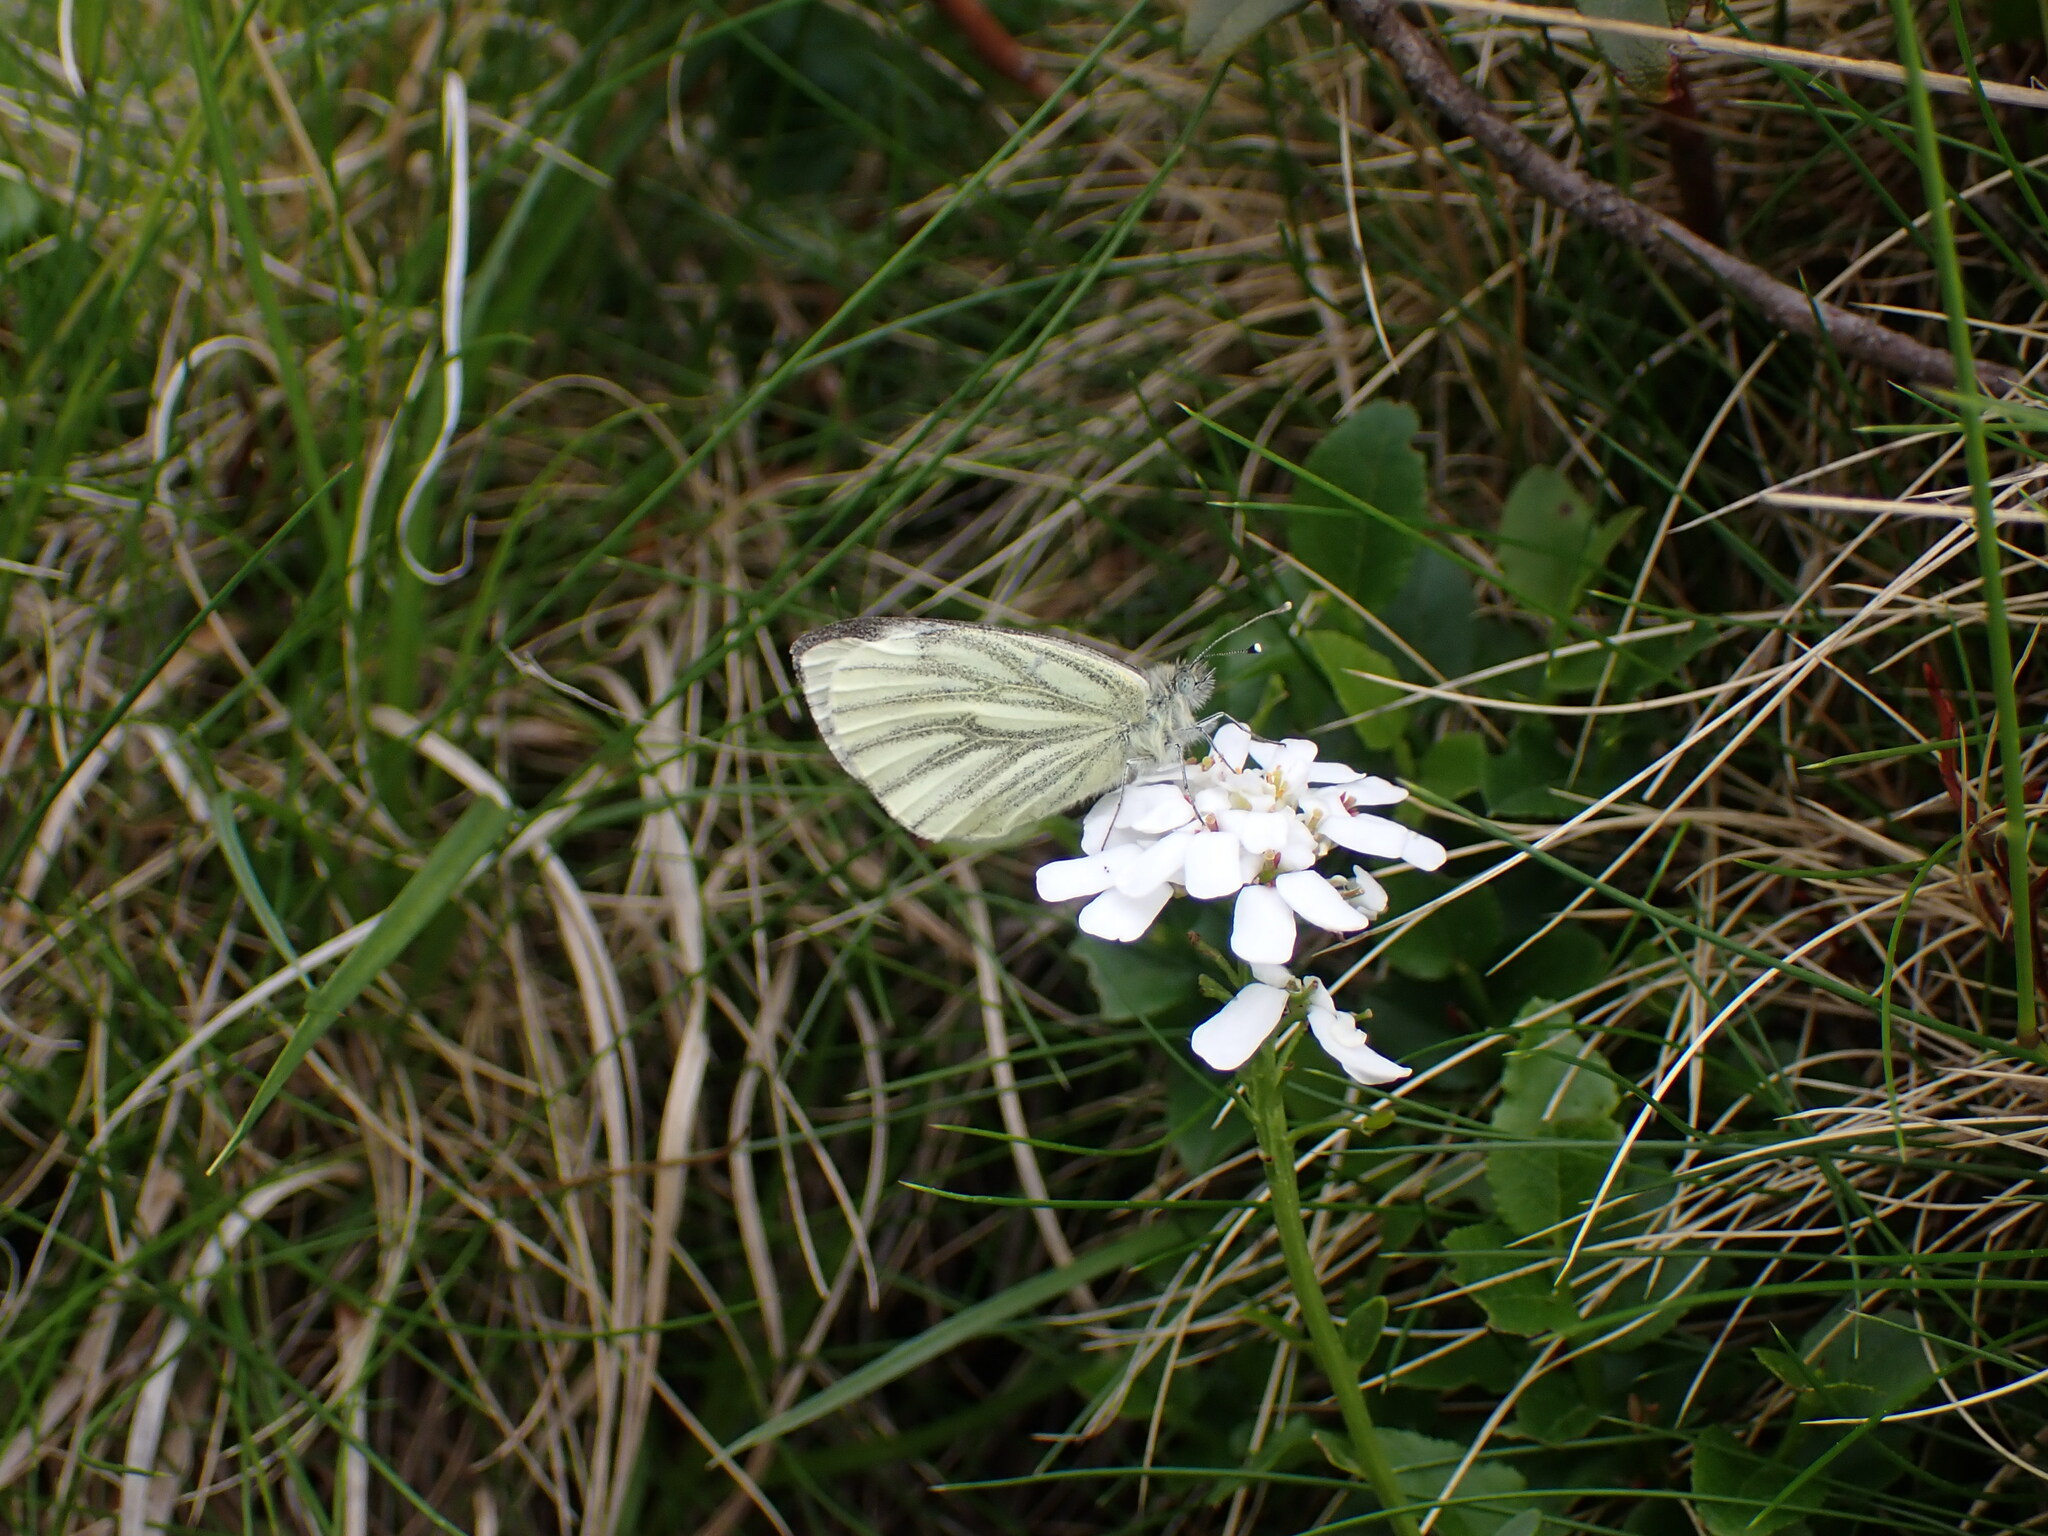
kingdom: Animalia
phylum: Arthropoda
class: Insecta
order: Lepidoptera
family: Pieridae
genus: Pieris
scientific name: Pieris napi
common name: Green-veined white
